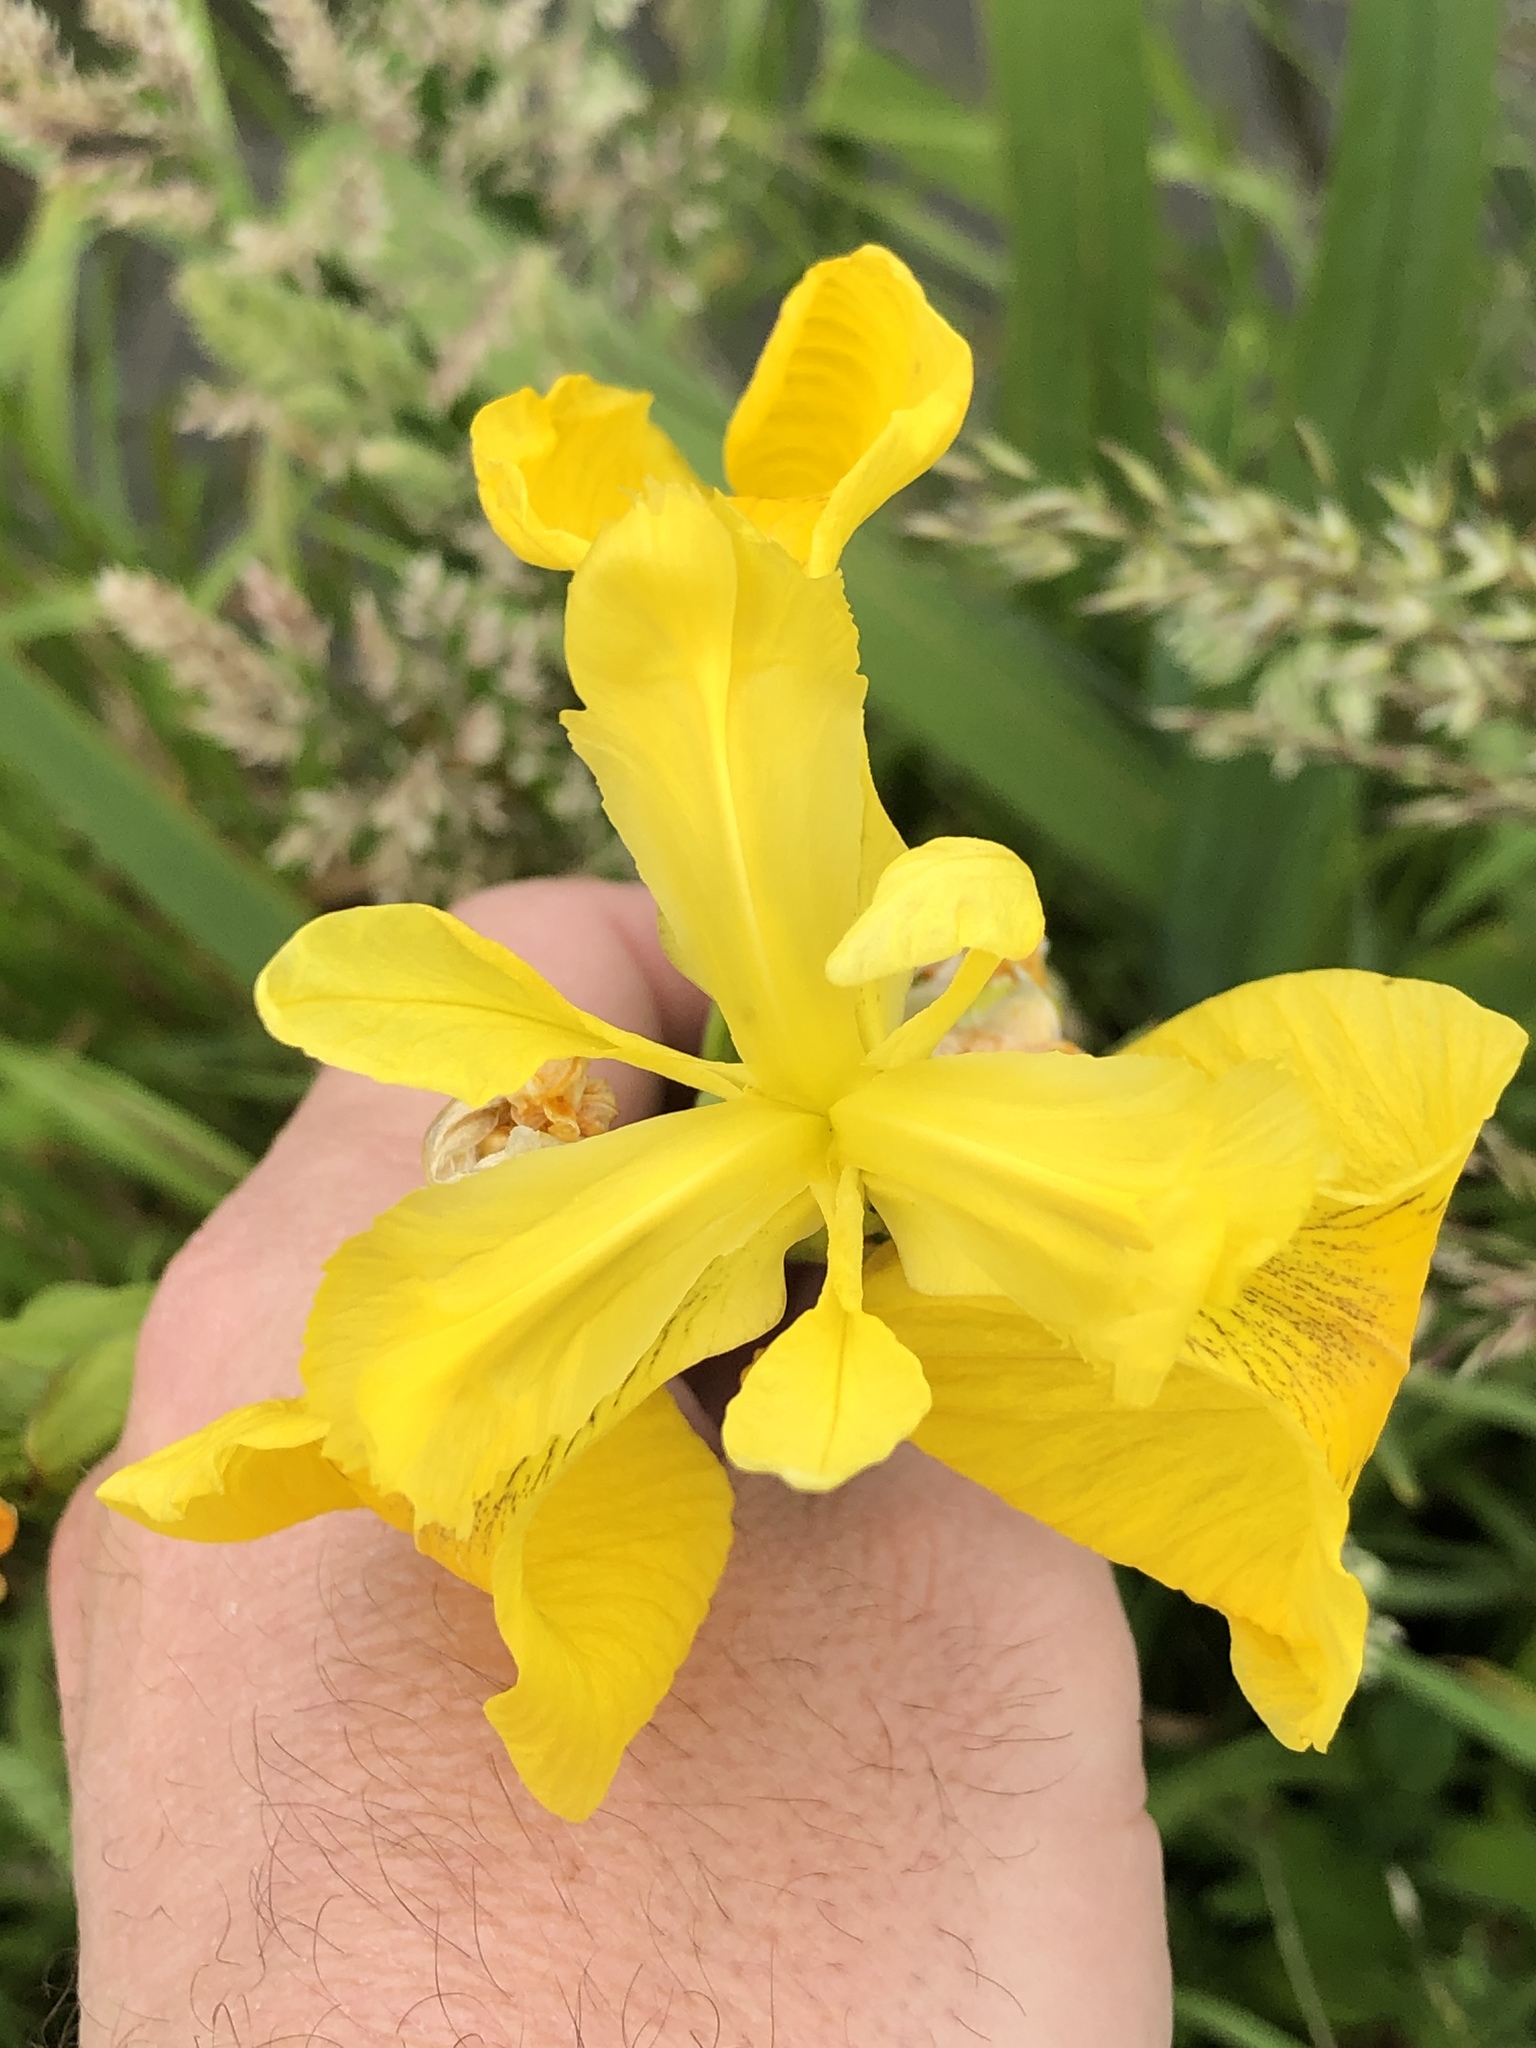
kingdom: Plantae
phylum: Tracheophyta
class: Liliopsida
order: Asparagales
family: Iridaceae
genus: Iris
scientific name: Iris pseudacorus
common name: Yellow flag
